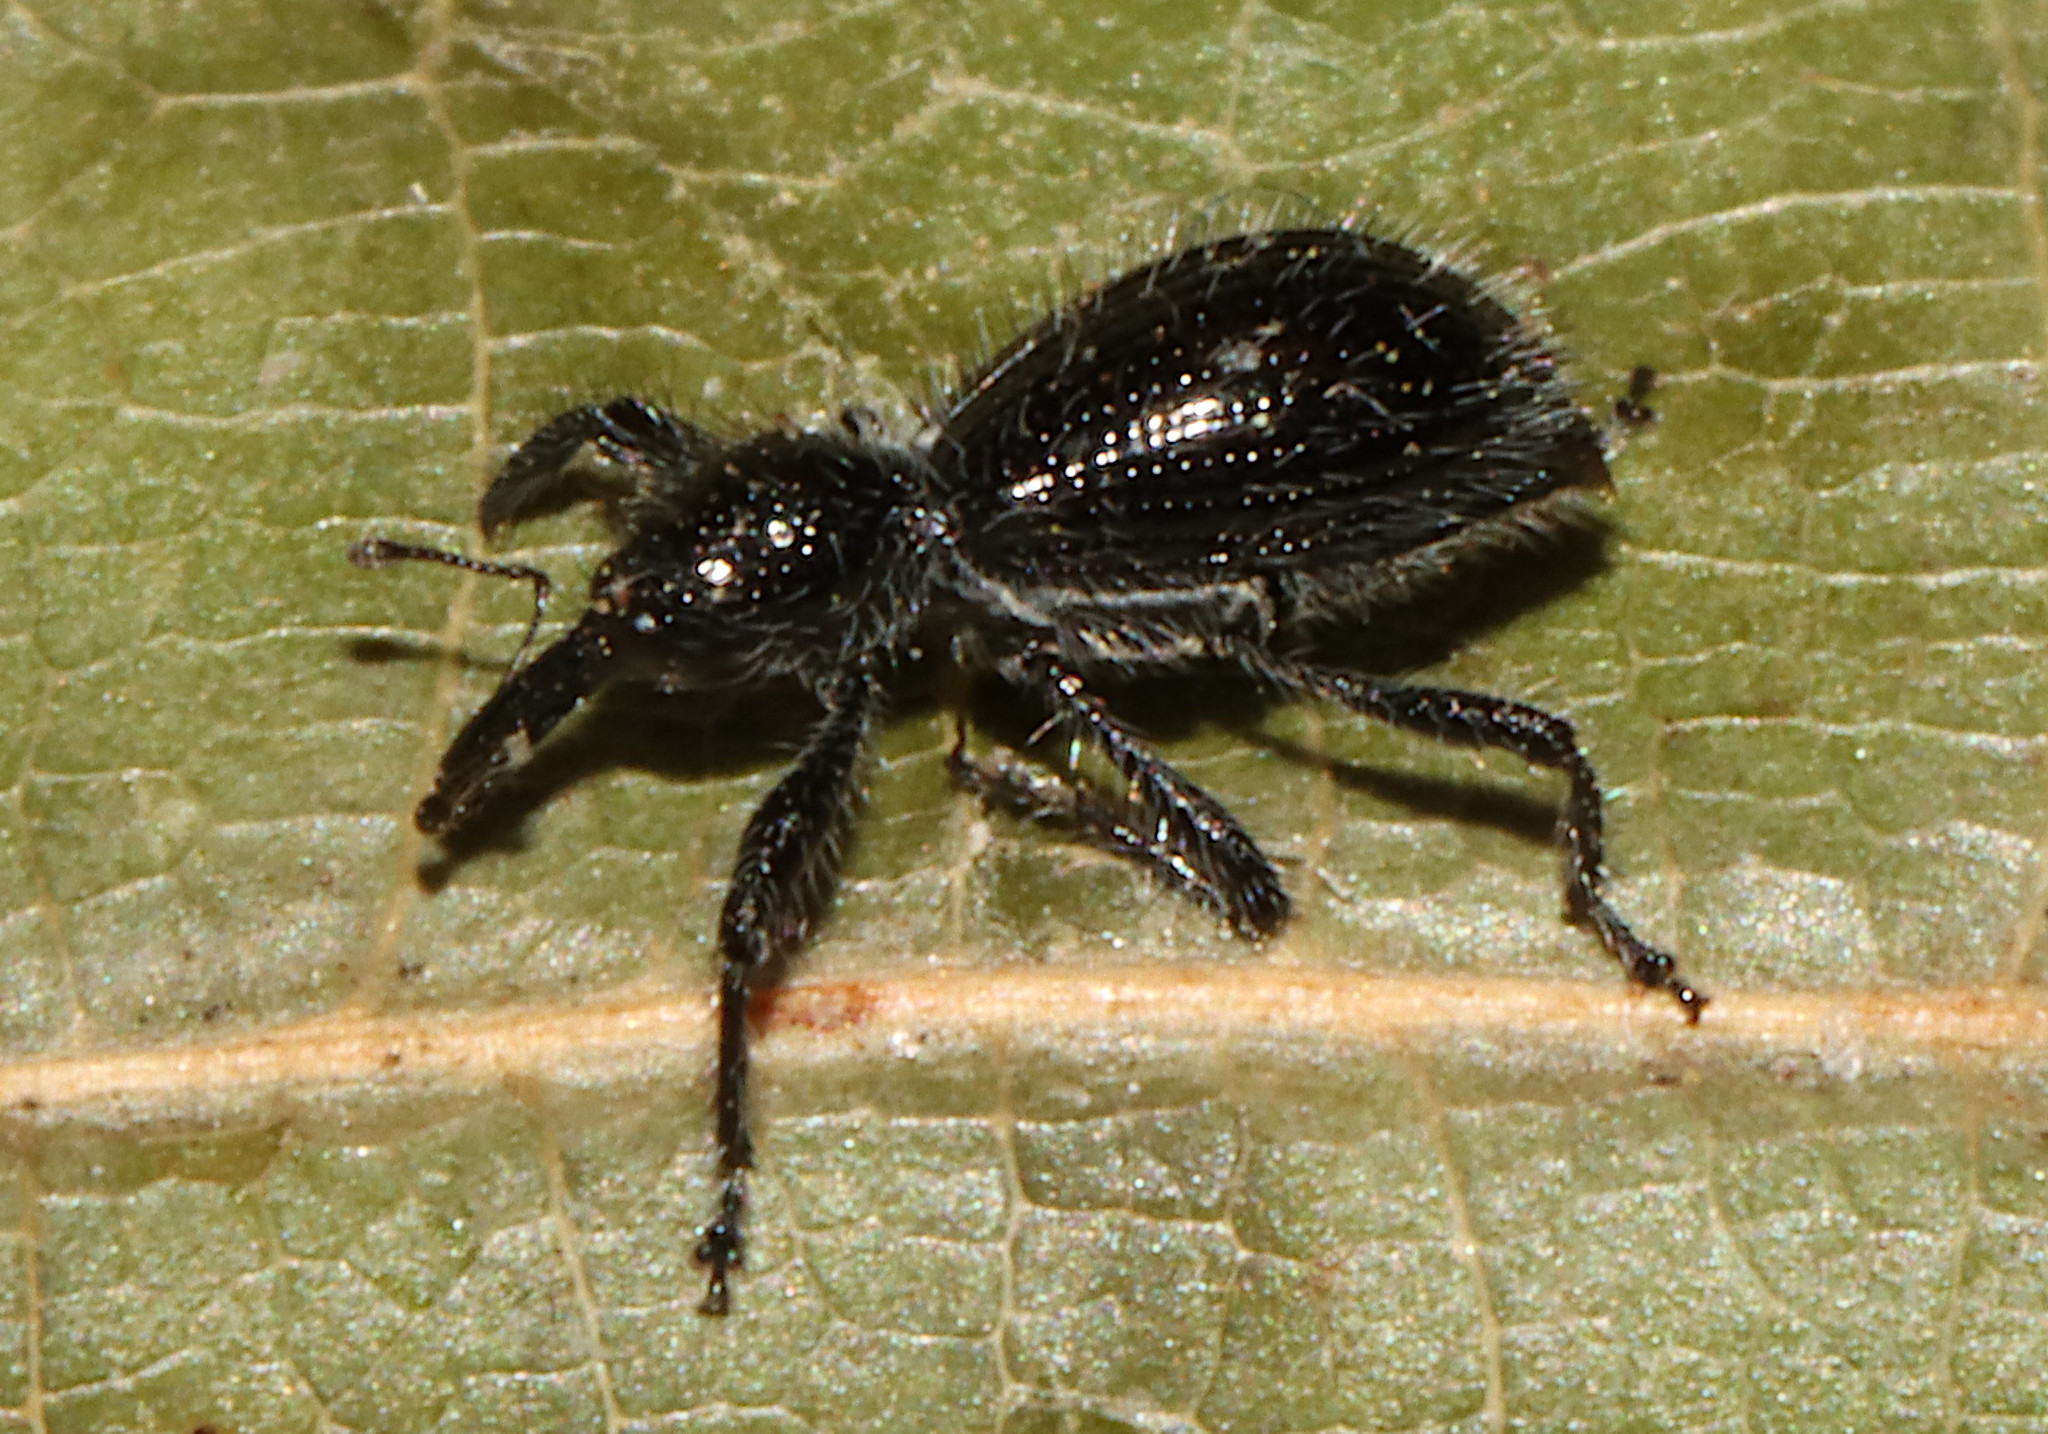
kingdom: Animalia
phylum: Arthropoda
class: Insecta
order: Coleoptera
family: Curculionidae
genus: Myrmex
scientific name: Myrmex scrobicollis
